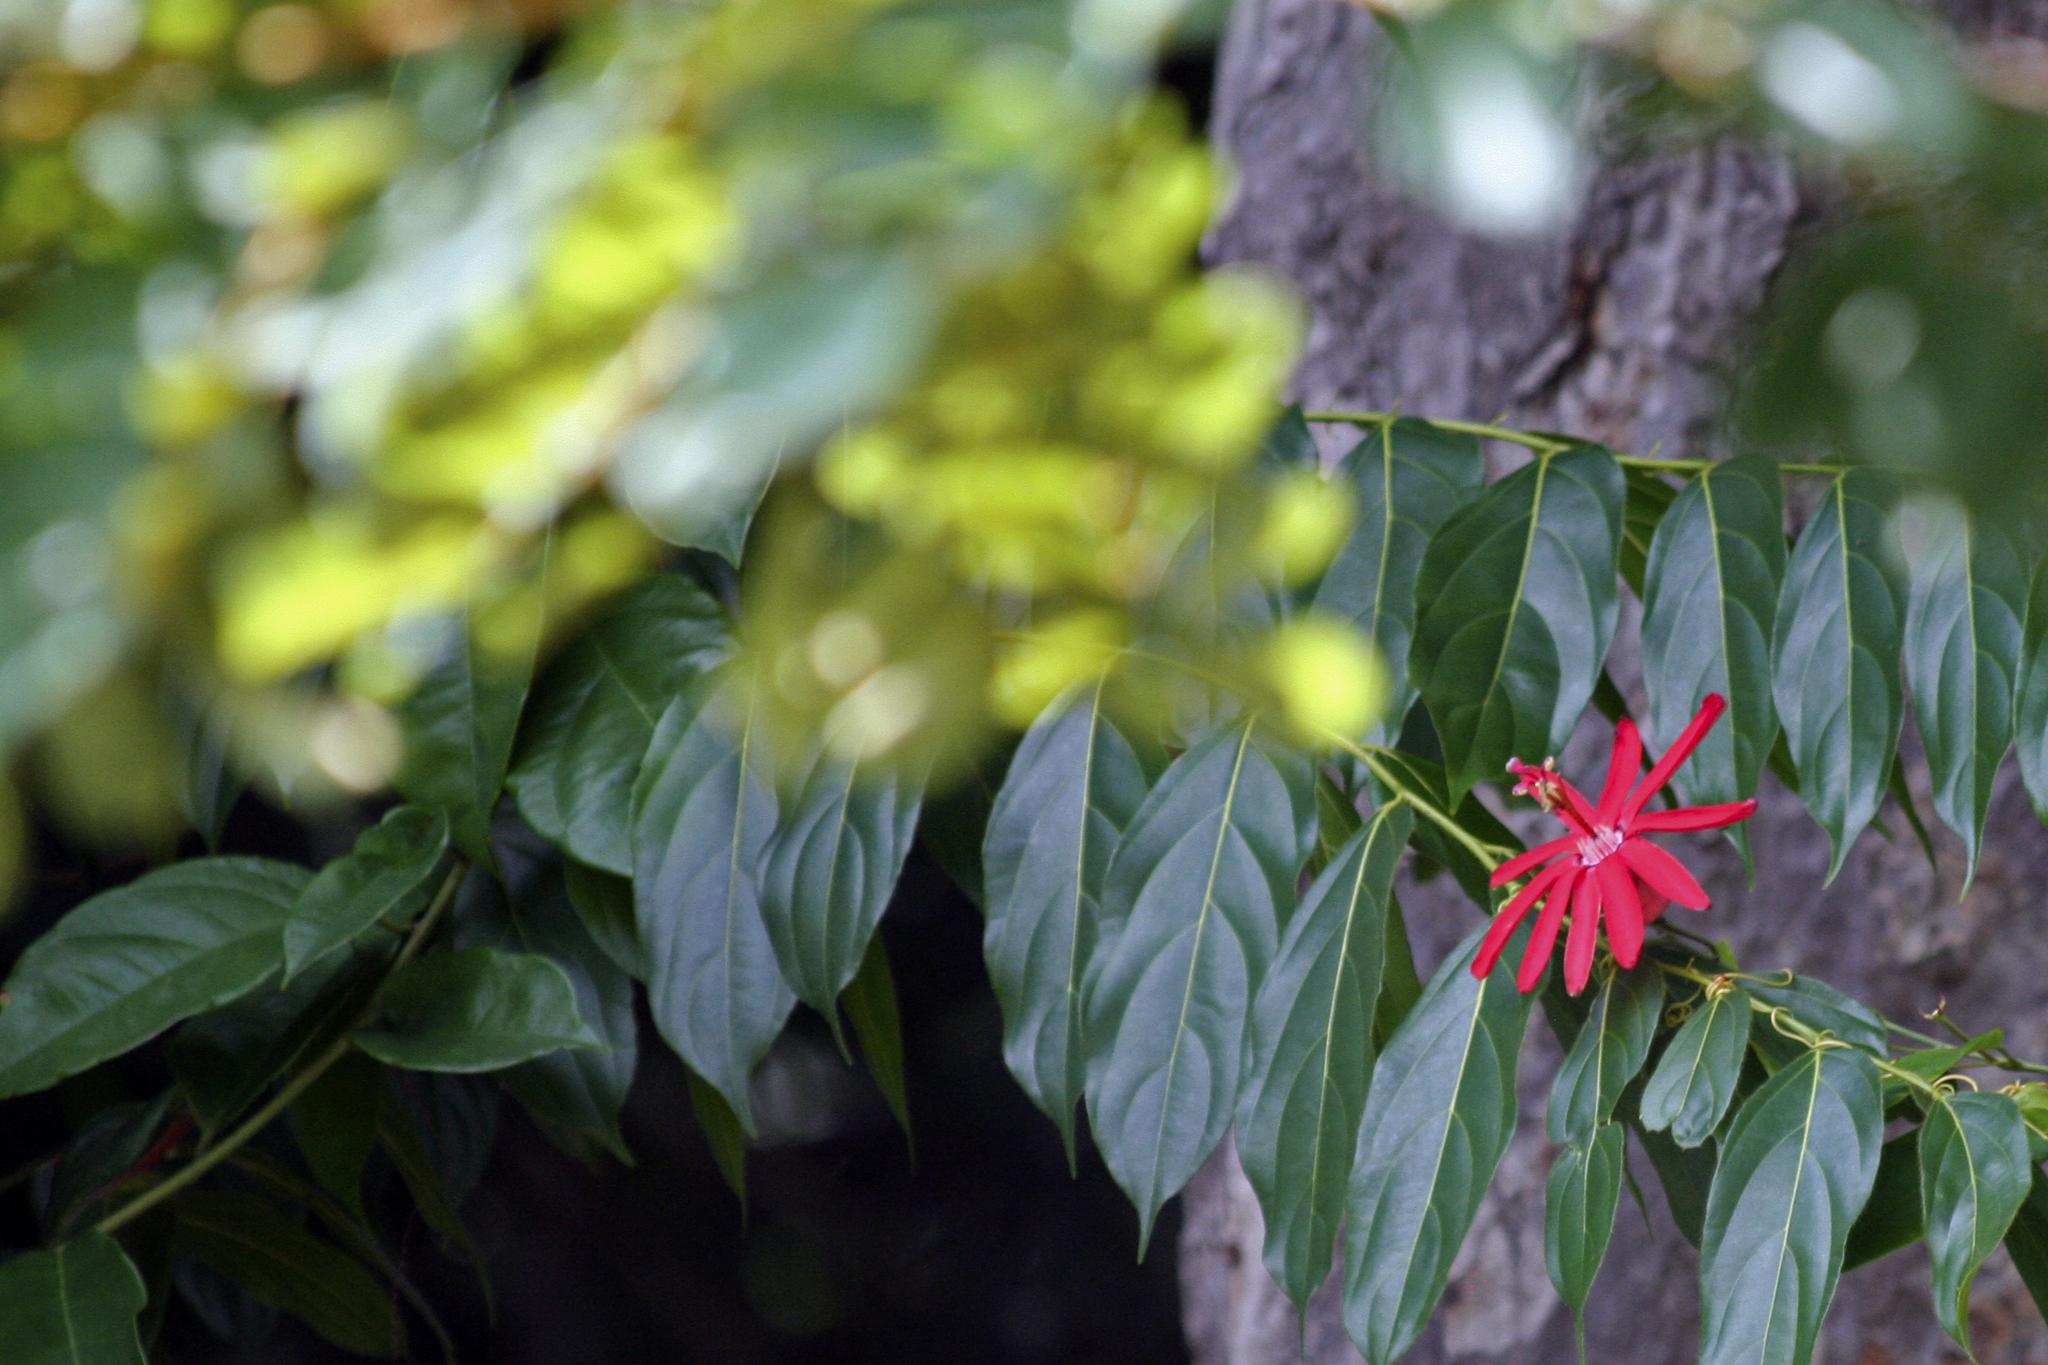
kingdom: Plantae
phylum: Tracheophyta
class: Magnoliopsida
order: Malpighiales
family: Passifloraceae
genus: Passiflora
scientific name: Passiflora glandulosa
